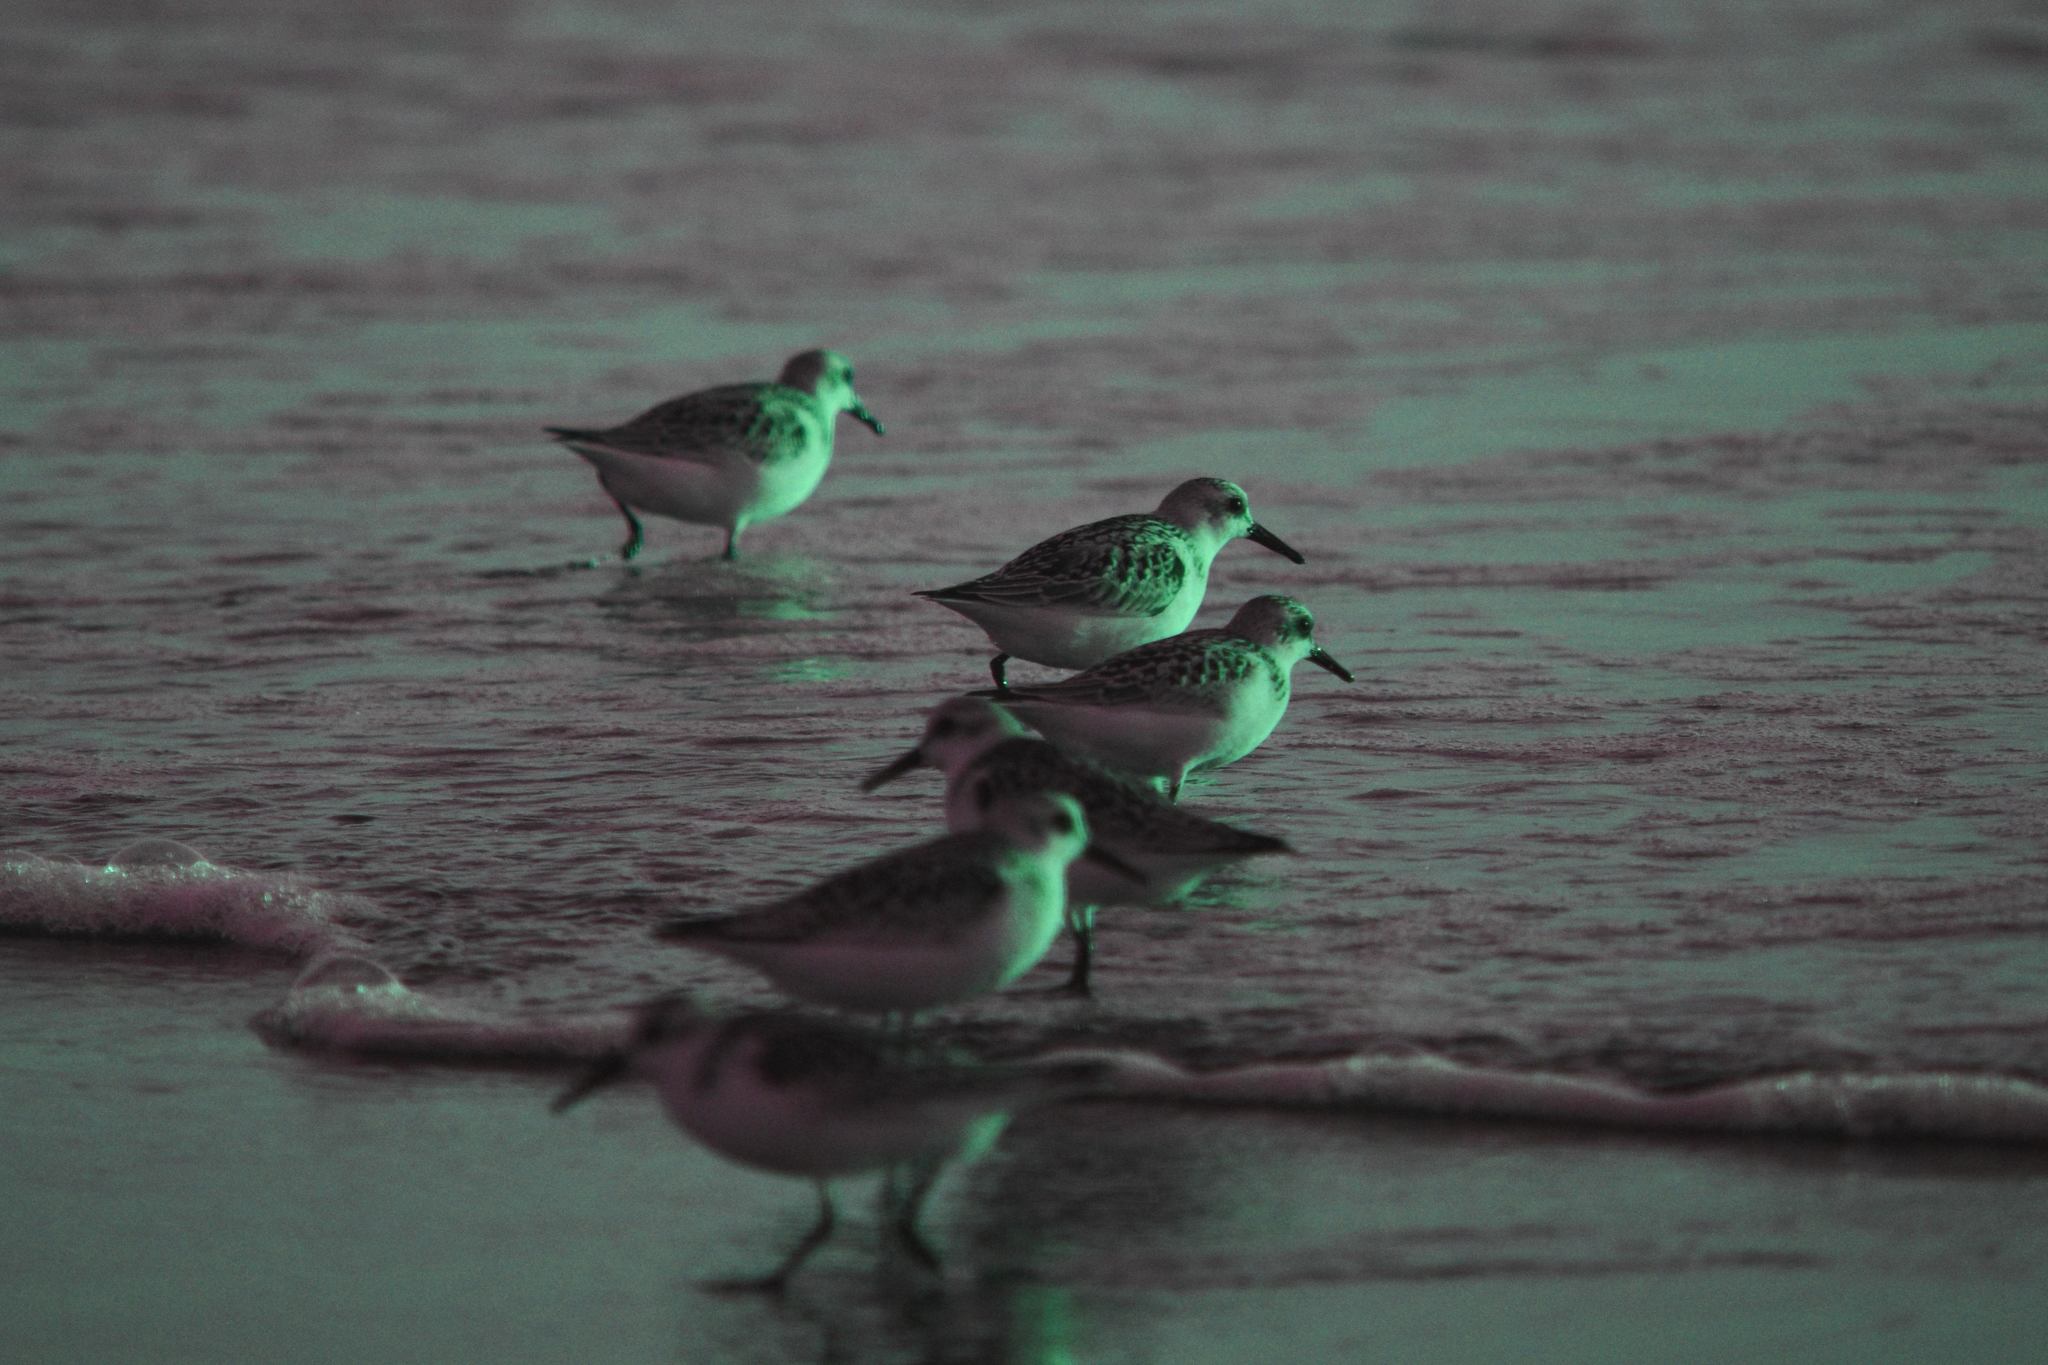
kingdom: Animalia
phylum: Chordata
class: Aves
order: Charadriiformes
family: Scolopacidae
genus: Calidris
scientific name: Calidris alba
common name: Sanderling
